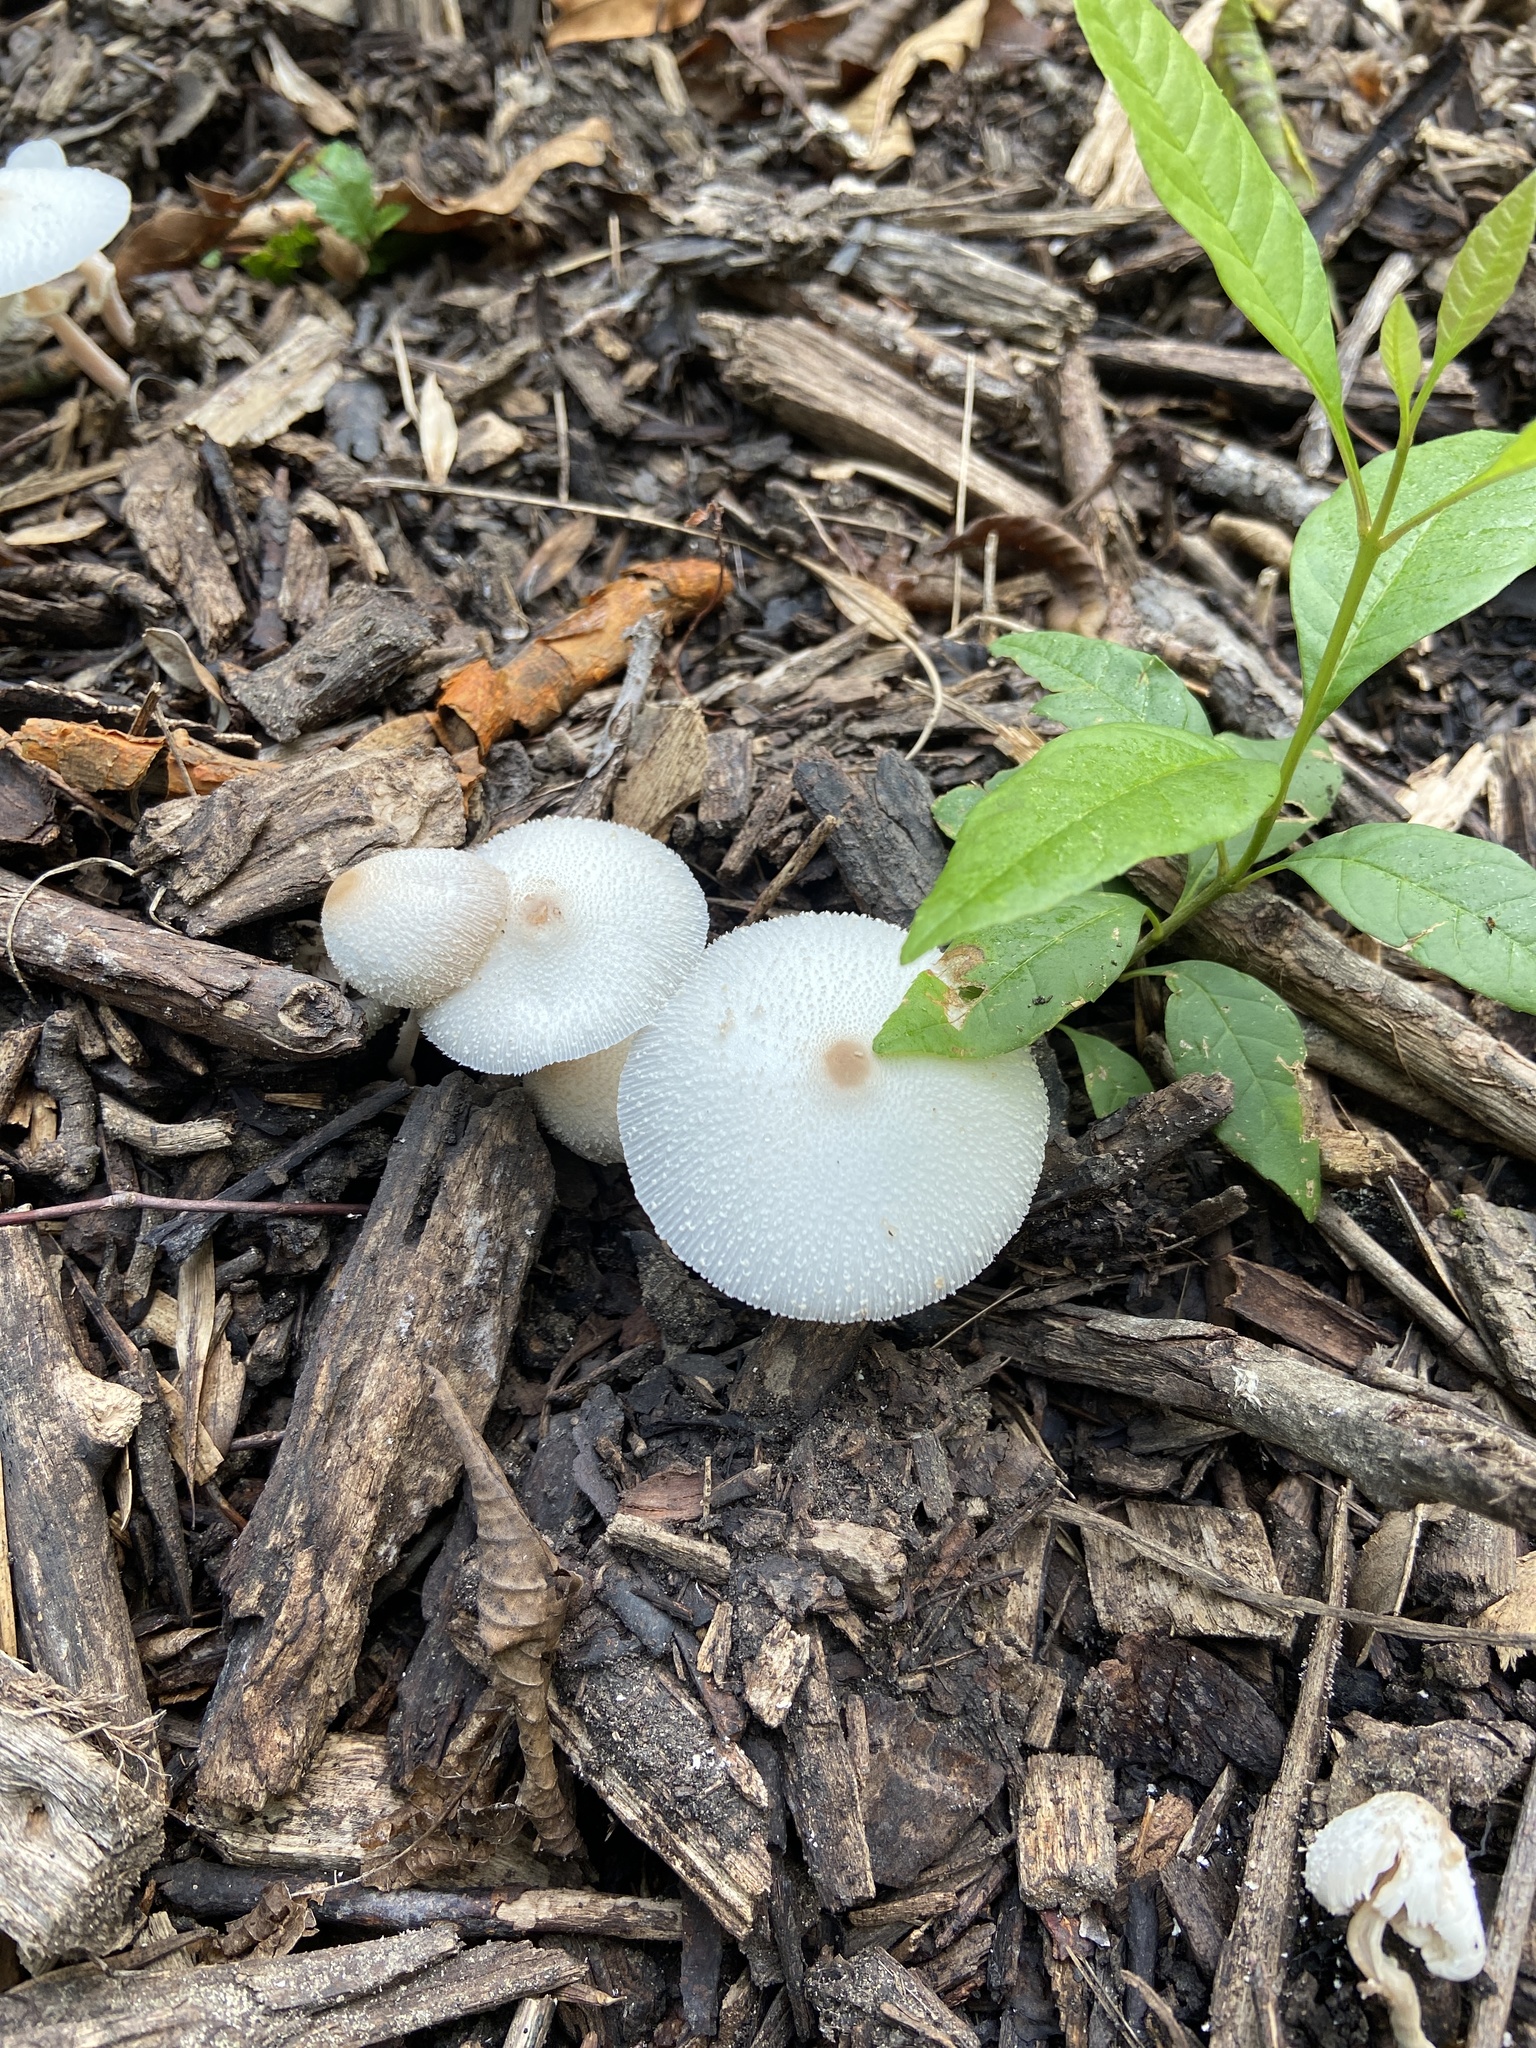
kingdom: Fungi
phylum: Basidiomycota
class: Agaricomycetes
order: Agaricales
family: Agaricaceae
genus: Leucocoprinus
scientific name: Leucocoprinus cepistipes
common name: Onion-stalk parasol
